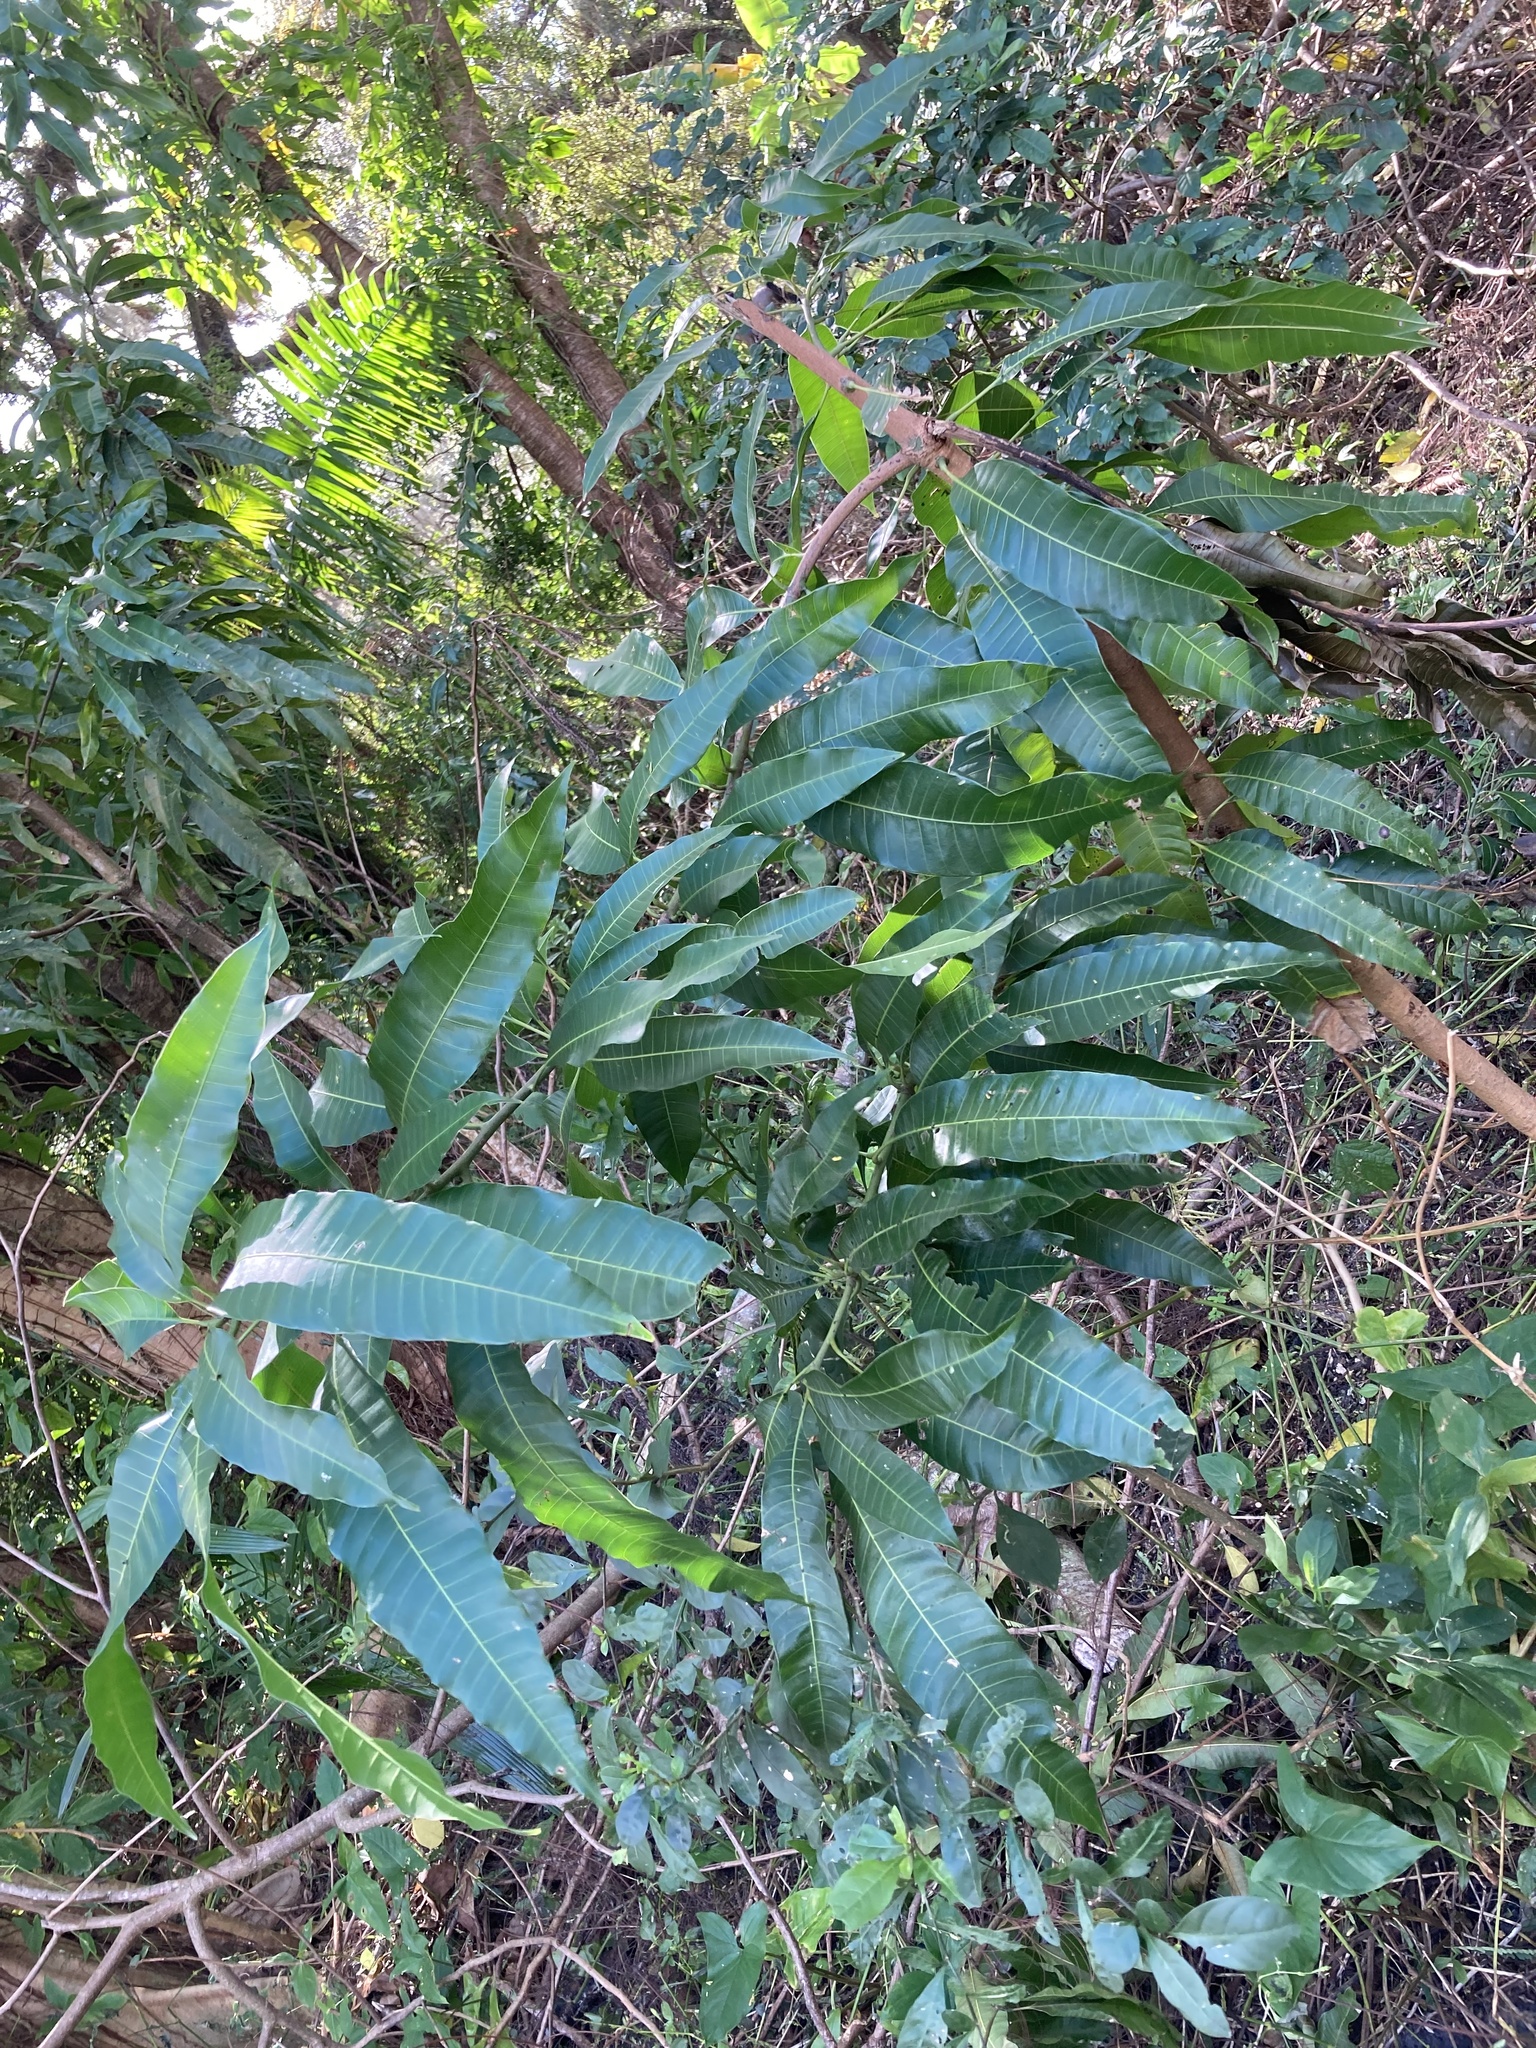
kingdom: Plantae
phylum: Tracheophyta
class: Magnoliopsida
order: Sapindales
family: Anacardiaceae
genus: Mangifera
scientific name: Mangifera indica
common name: Mango
